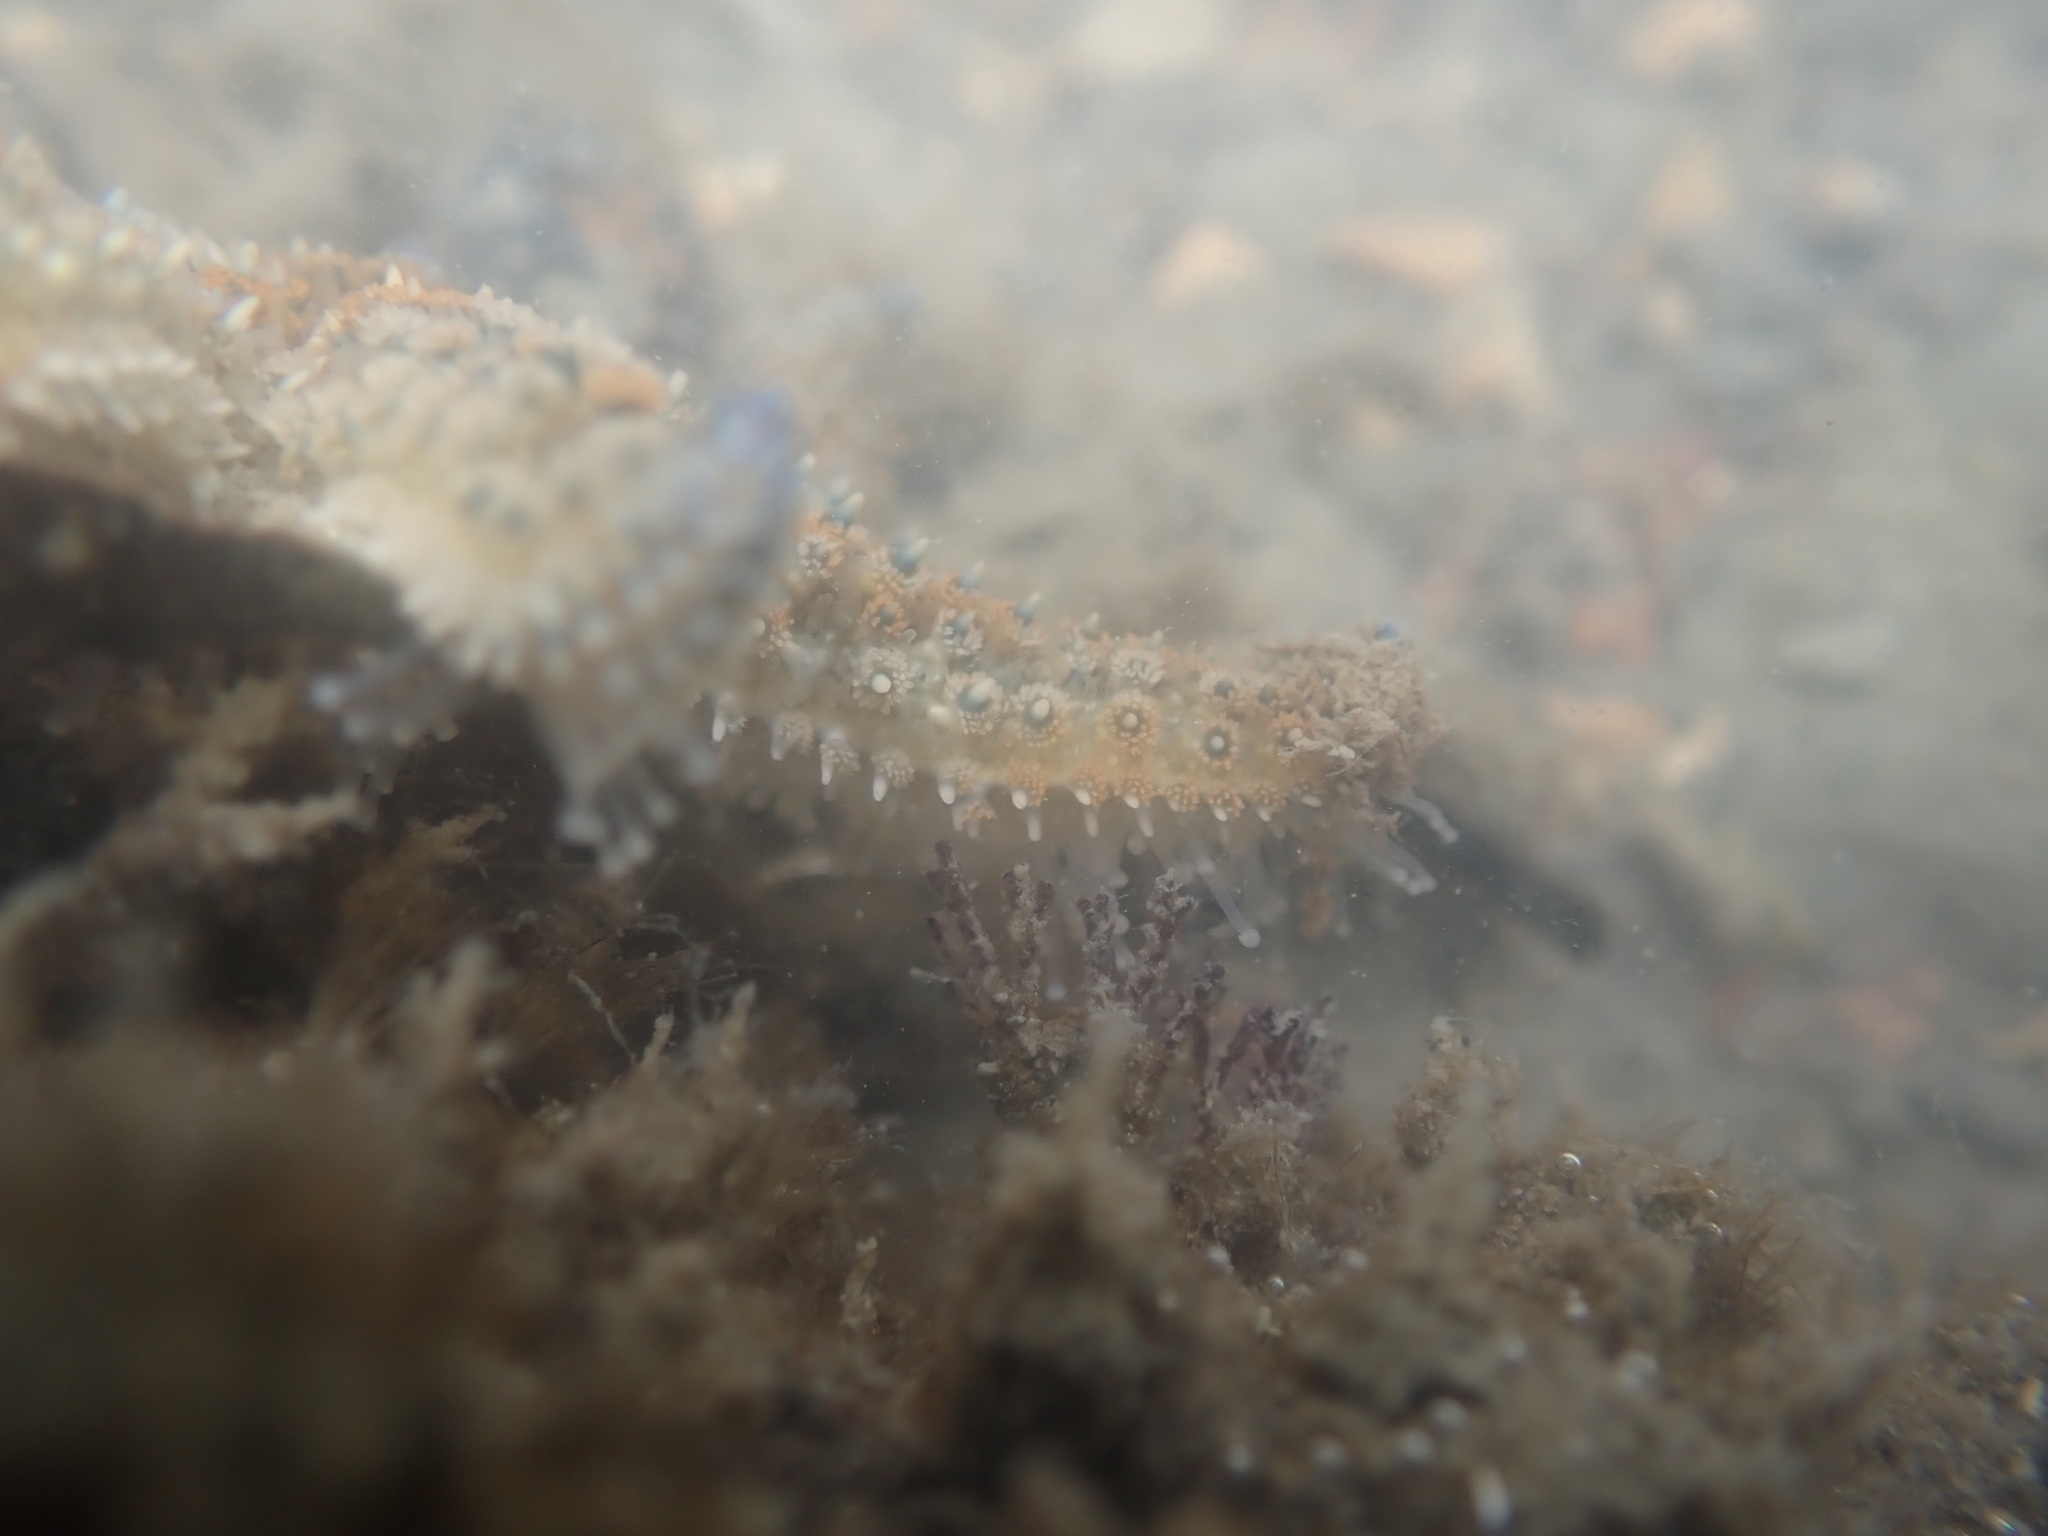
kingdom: Animalia
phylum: Echinodermata
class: Asteroidea
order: Forcipulatida
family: Asteriidae
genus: Coscinasterias
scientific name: Coscinasterias muricata
